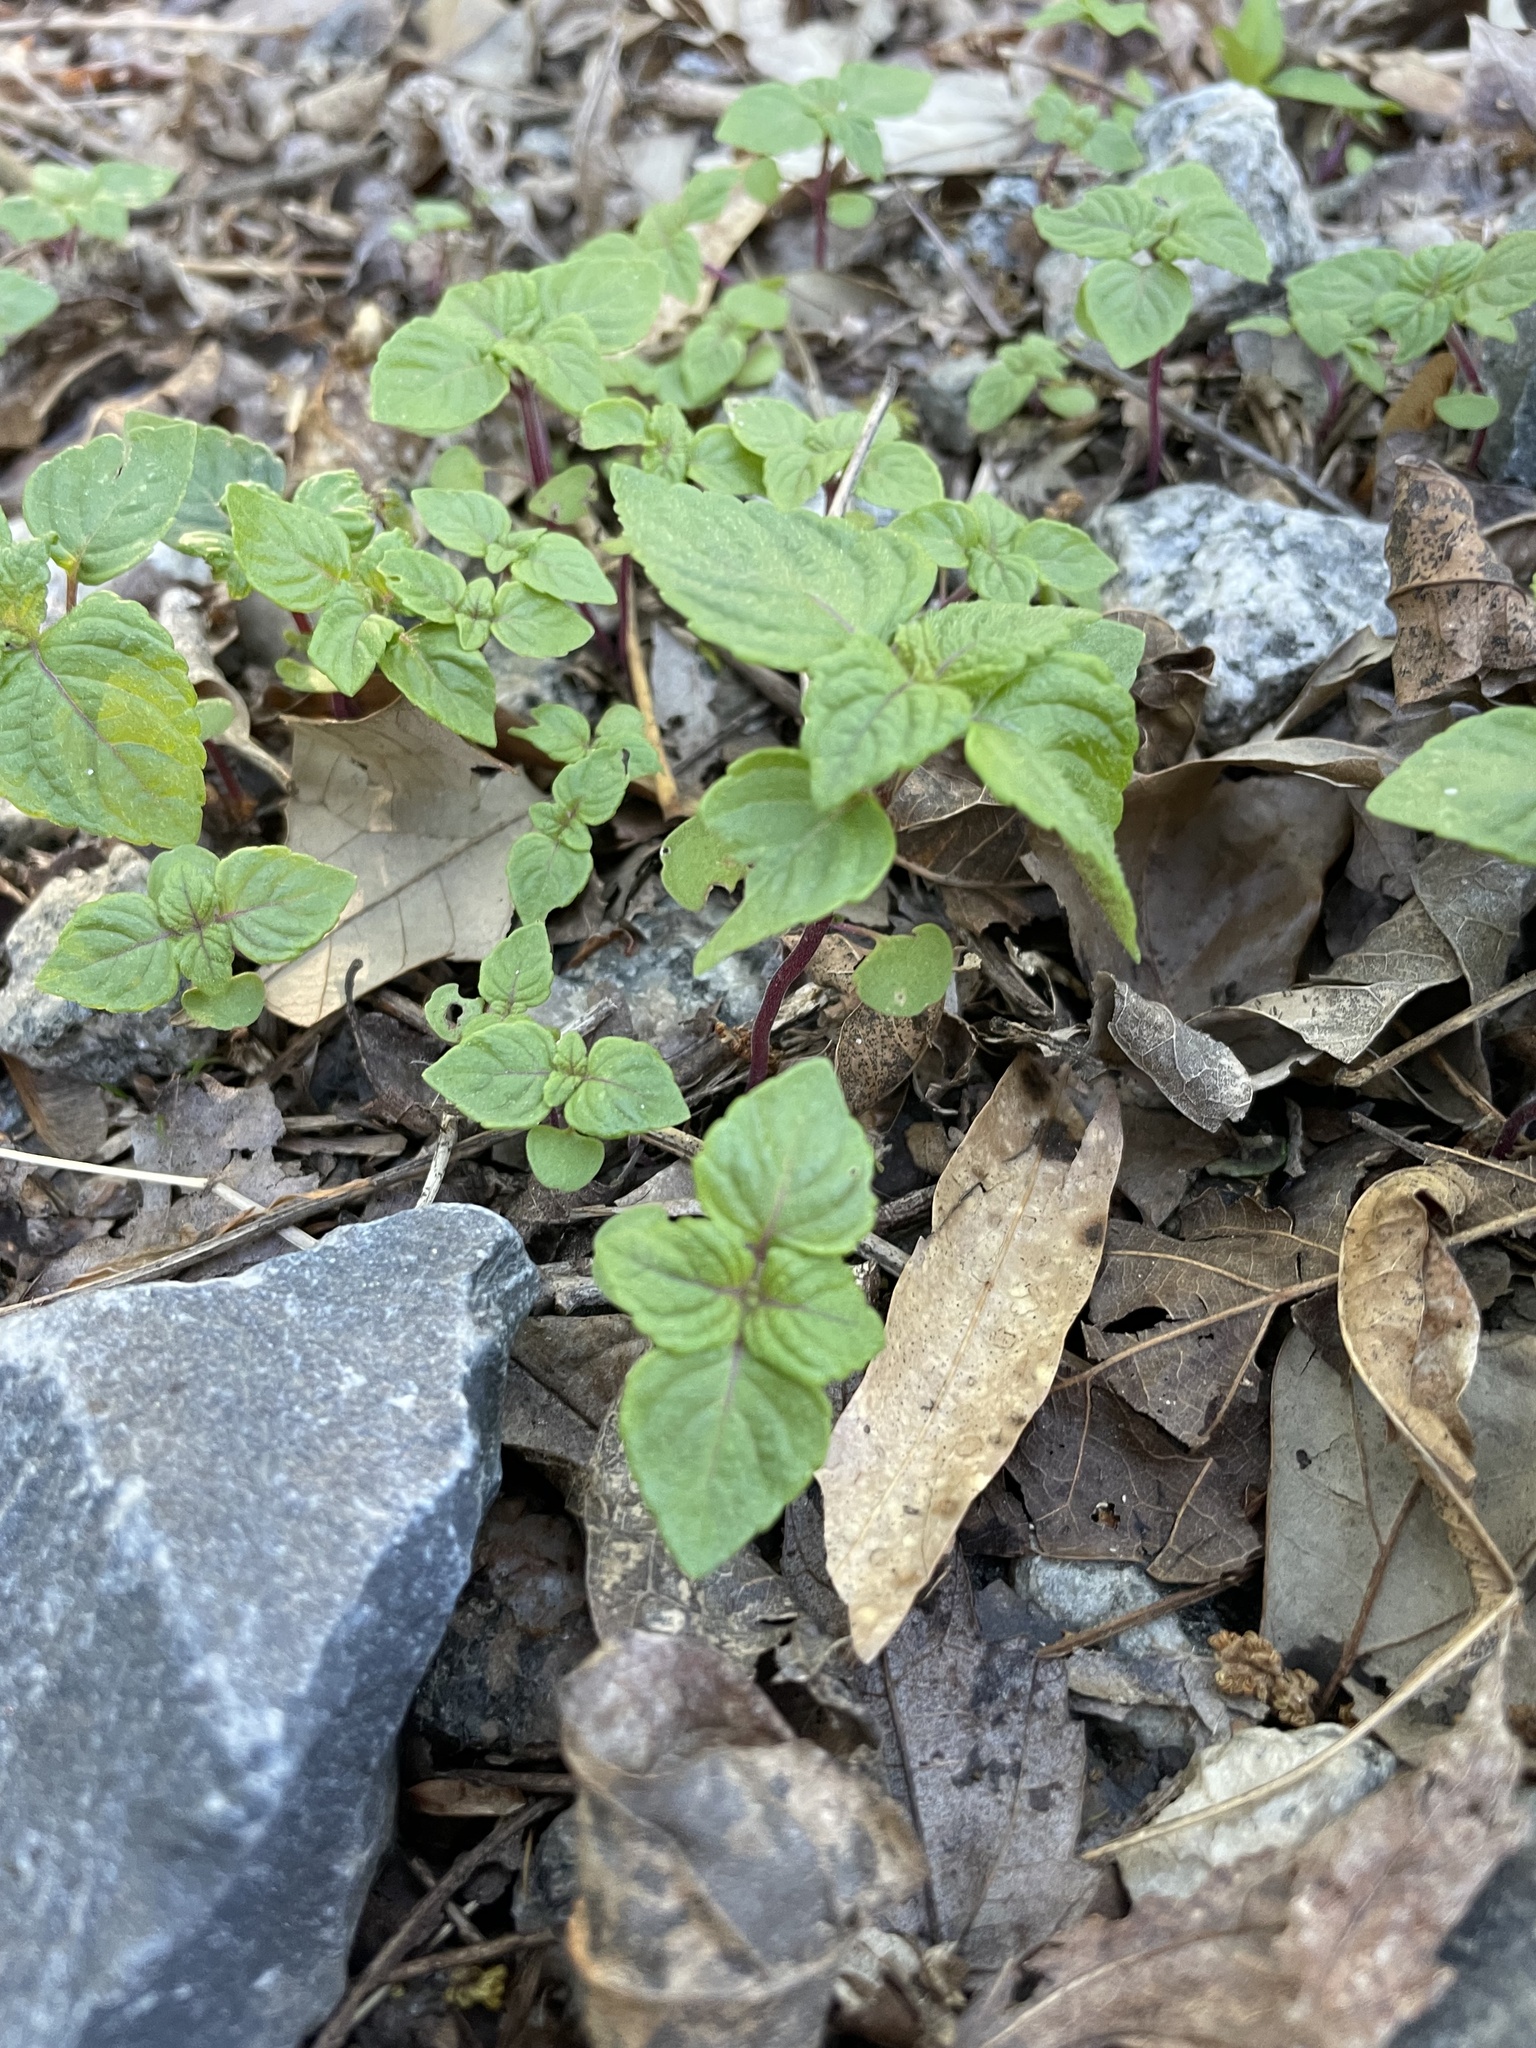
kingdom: Plantae
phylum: Tracheophyta
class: Magnoliopsida
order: Lamiales
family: Lamiaceae
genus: Perilla
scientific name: Perilla frutescens
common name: Perilla
